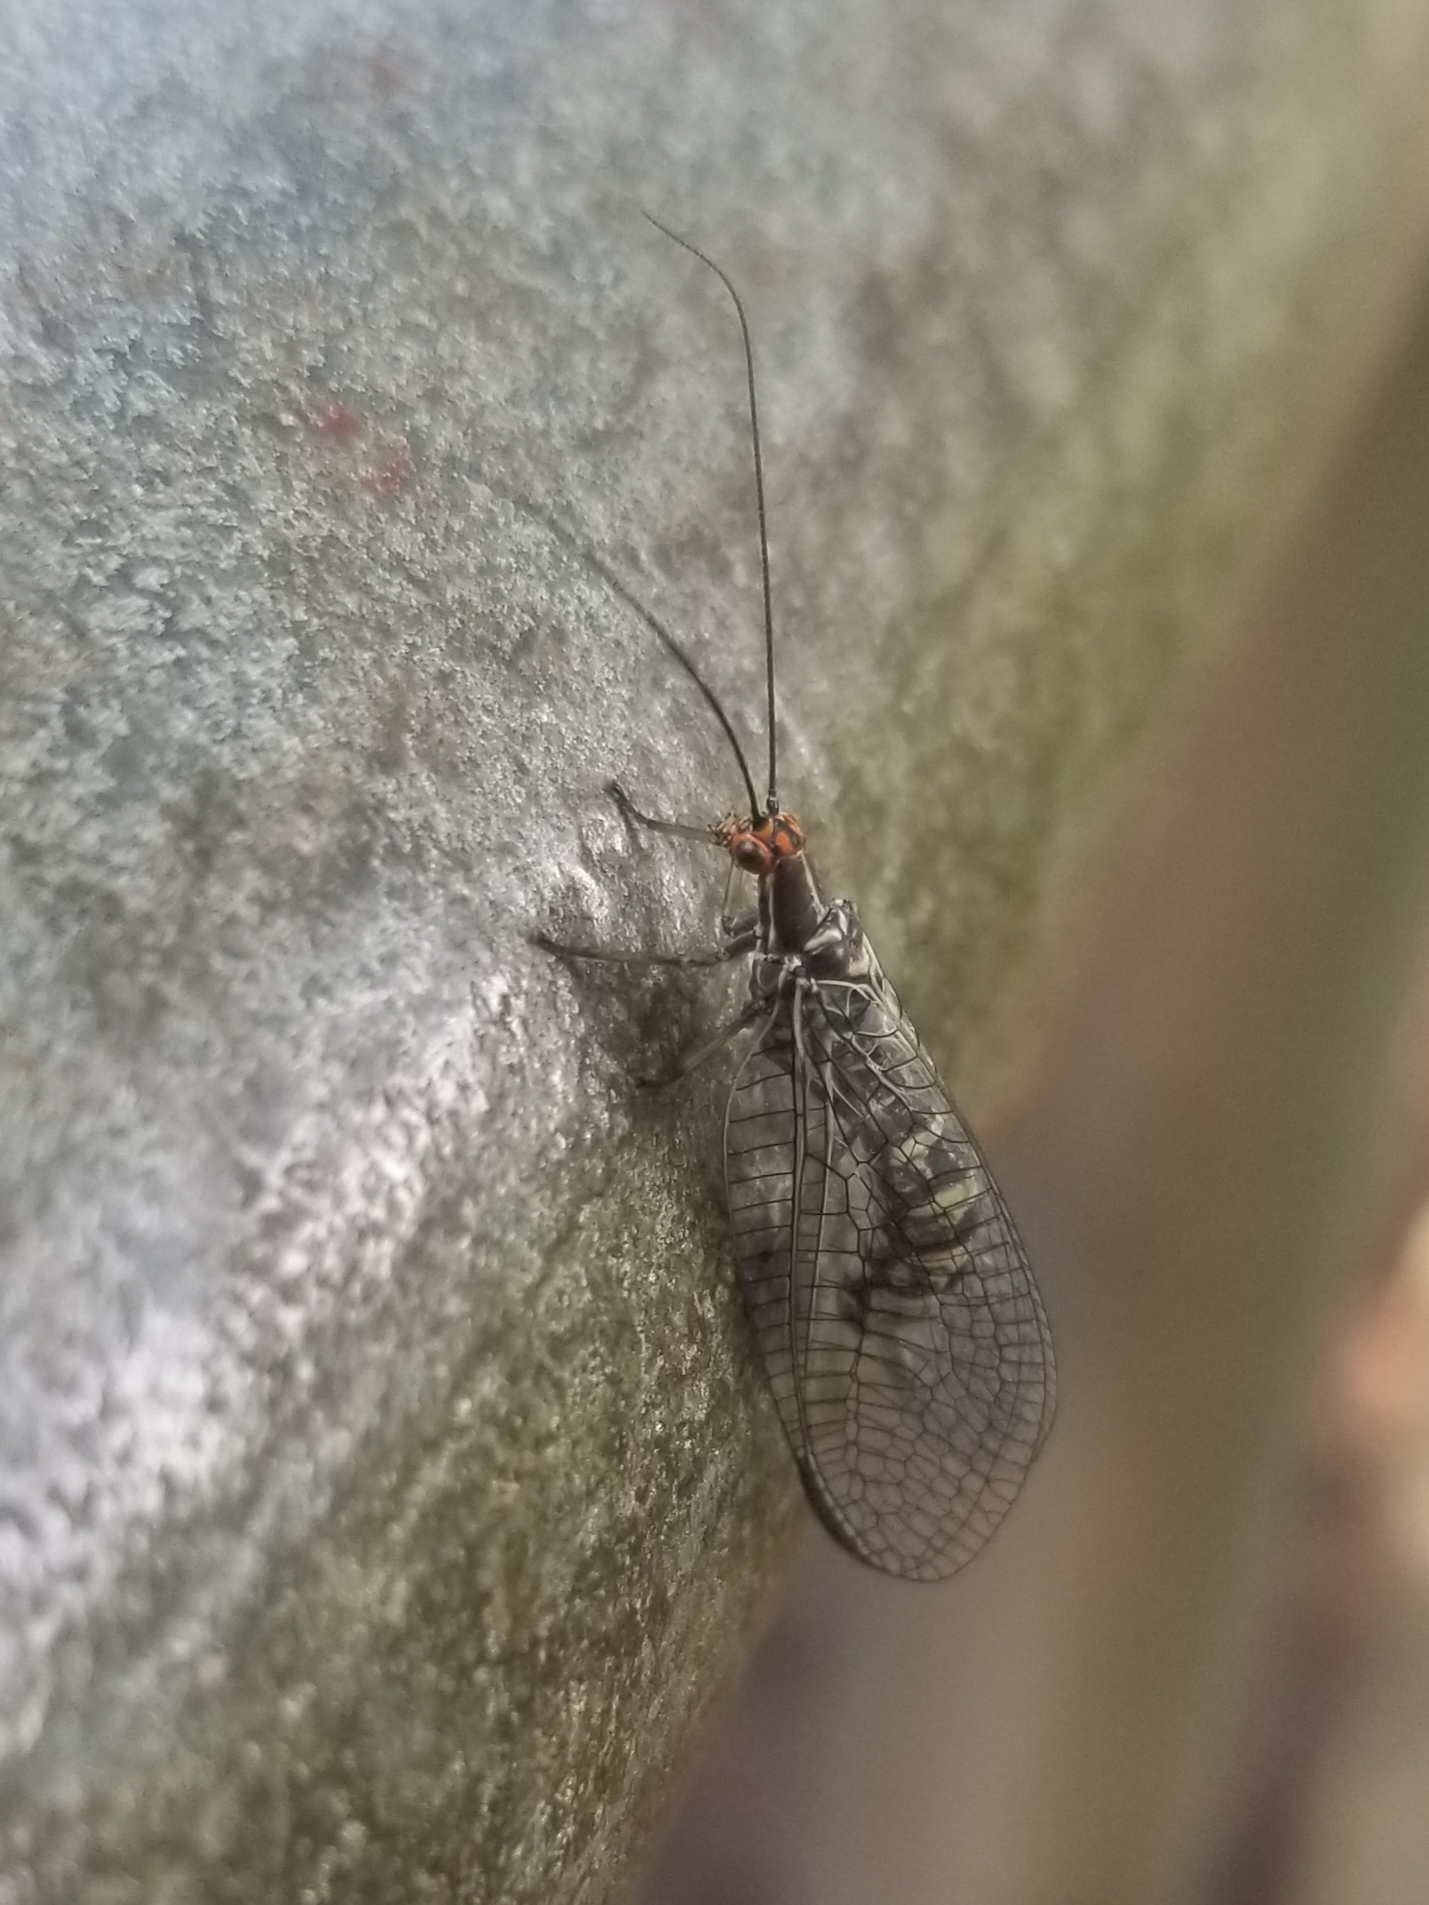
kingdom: Animalia
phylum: Arthropoda
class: Insecta
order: Neuroptera
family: Chrysopidae
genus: Nothochrysa
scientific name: Nothochrysa californica
